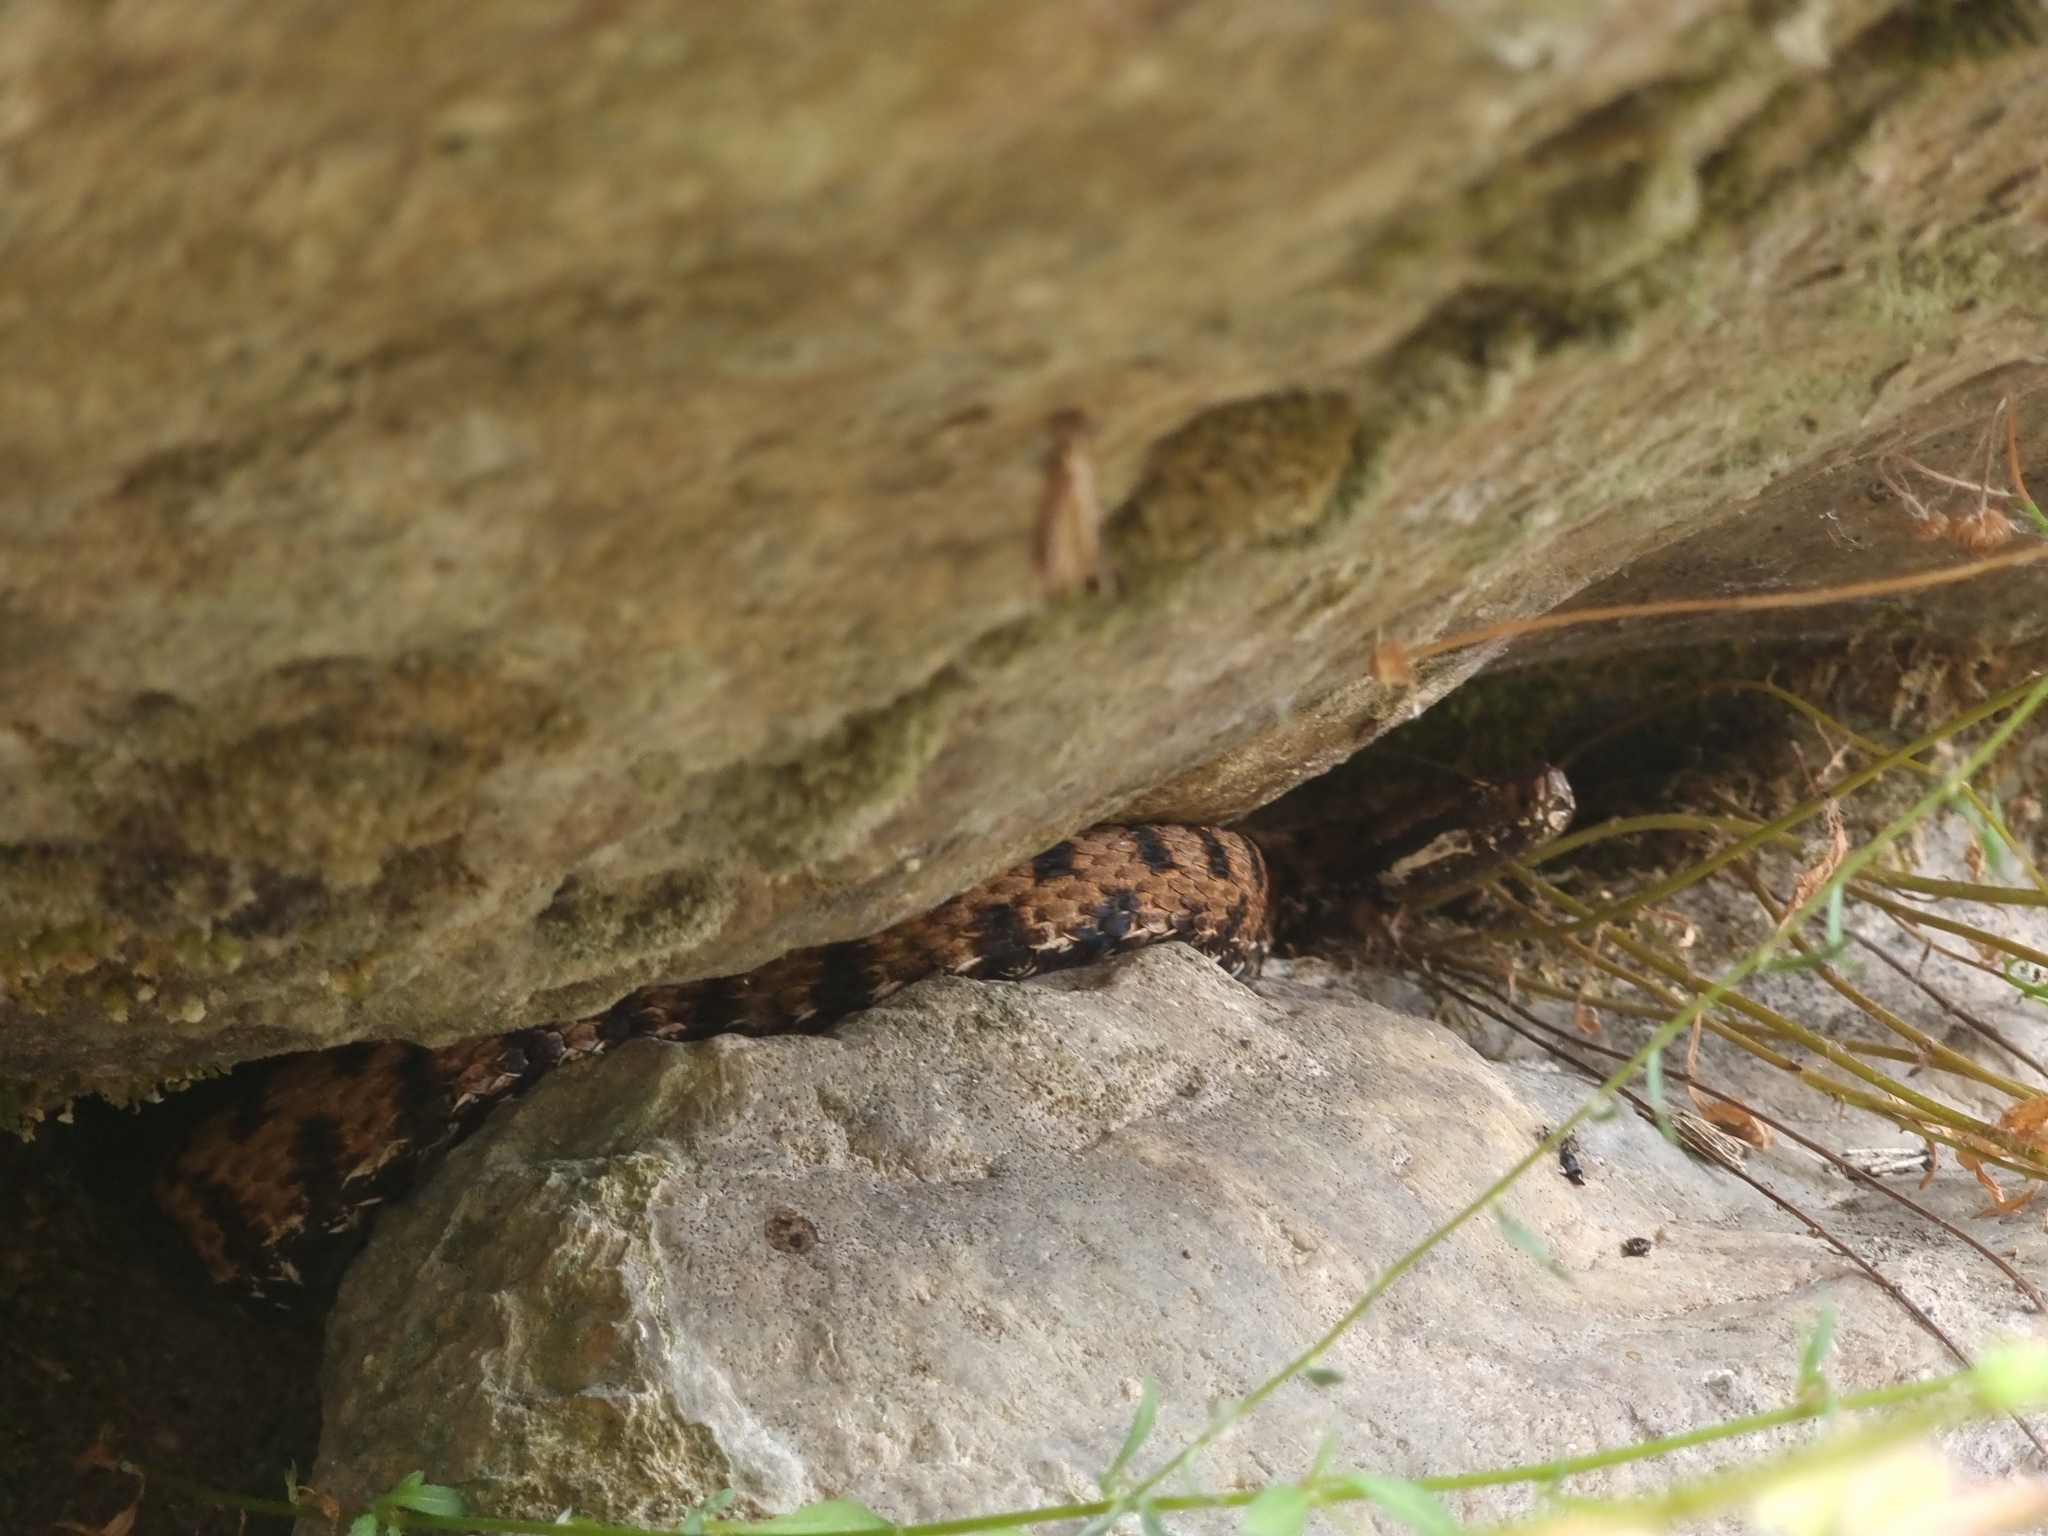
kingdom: Animalia
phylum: Chordata
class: Squamata
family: Viperidae
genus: Vipera
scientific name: Vipera aspis
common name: Asp viper
